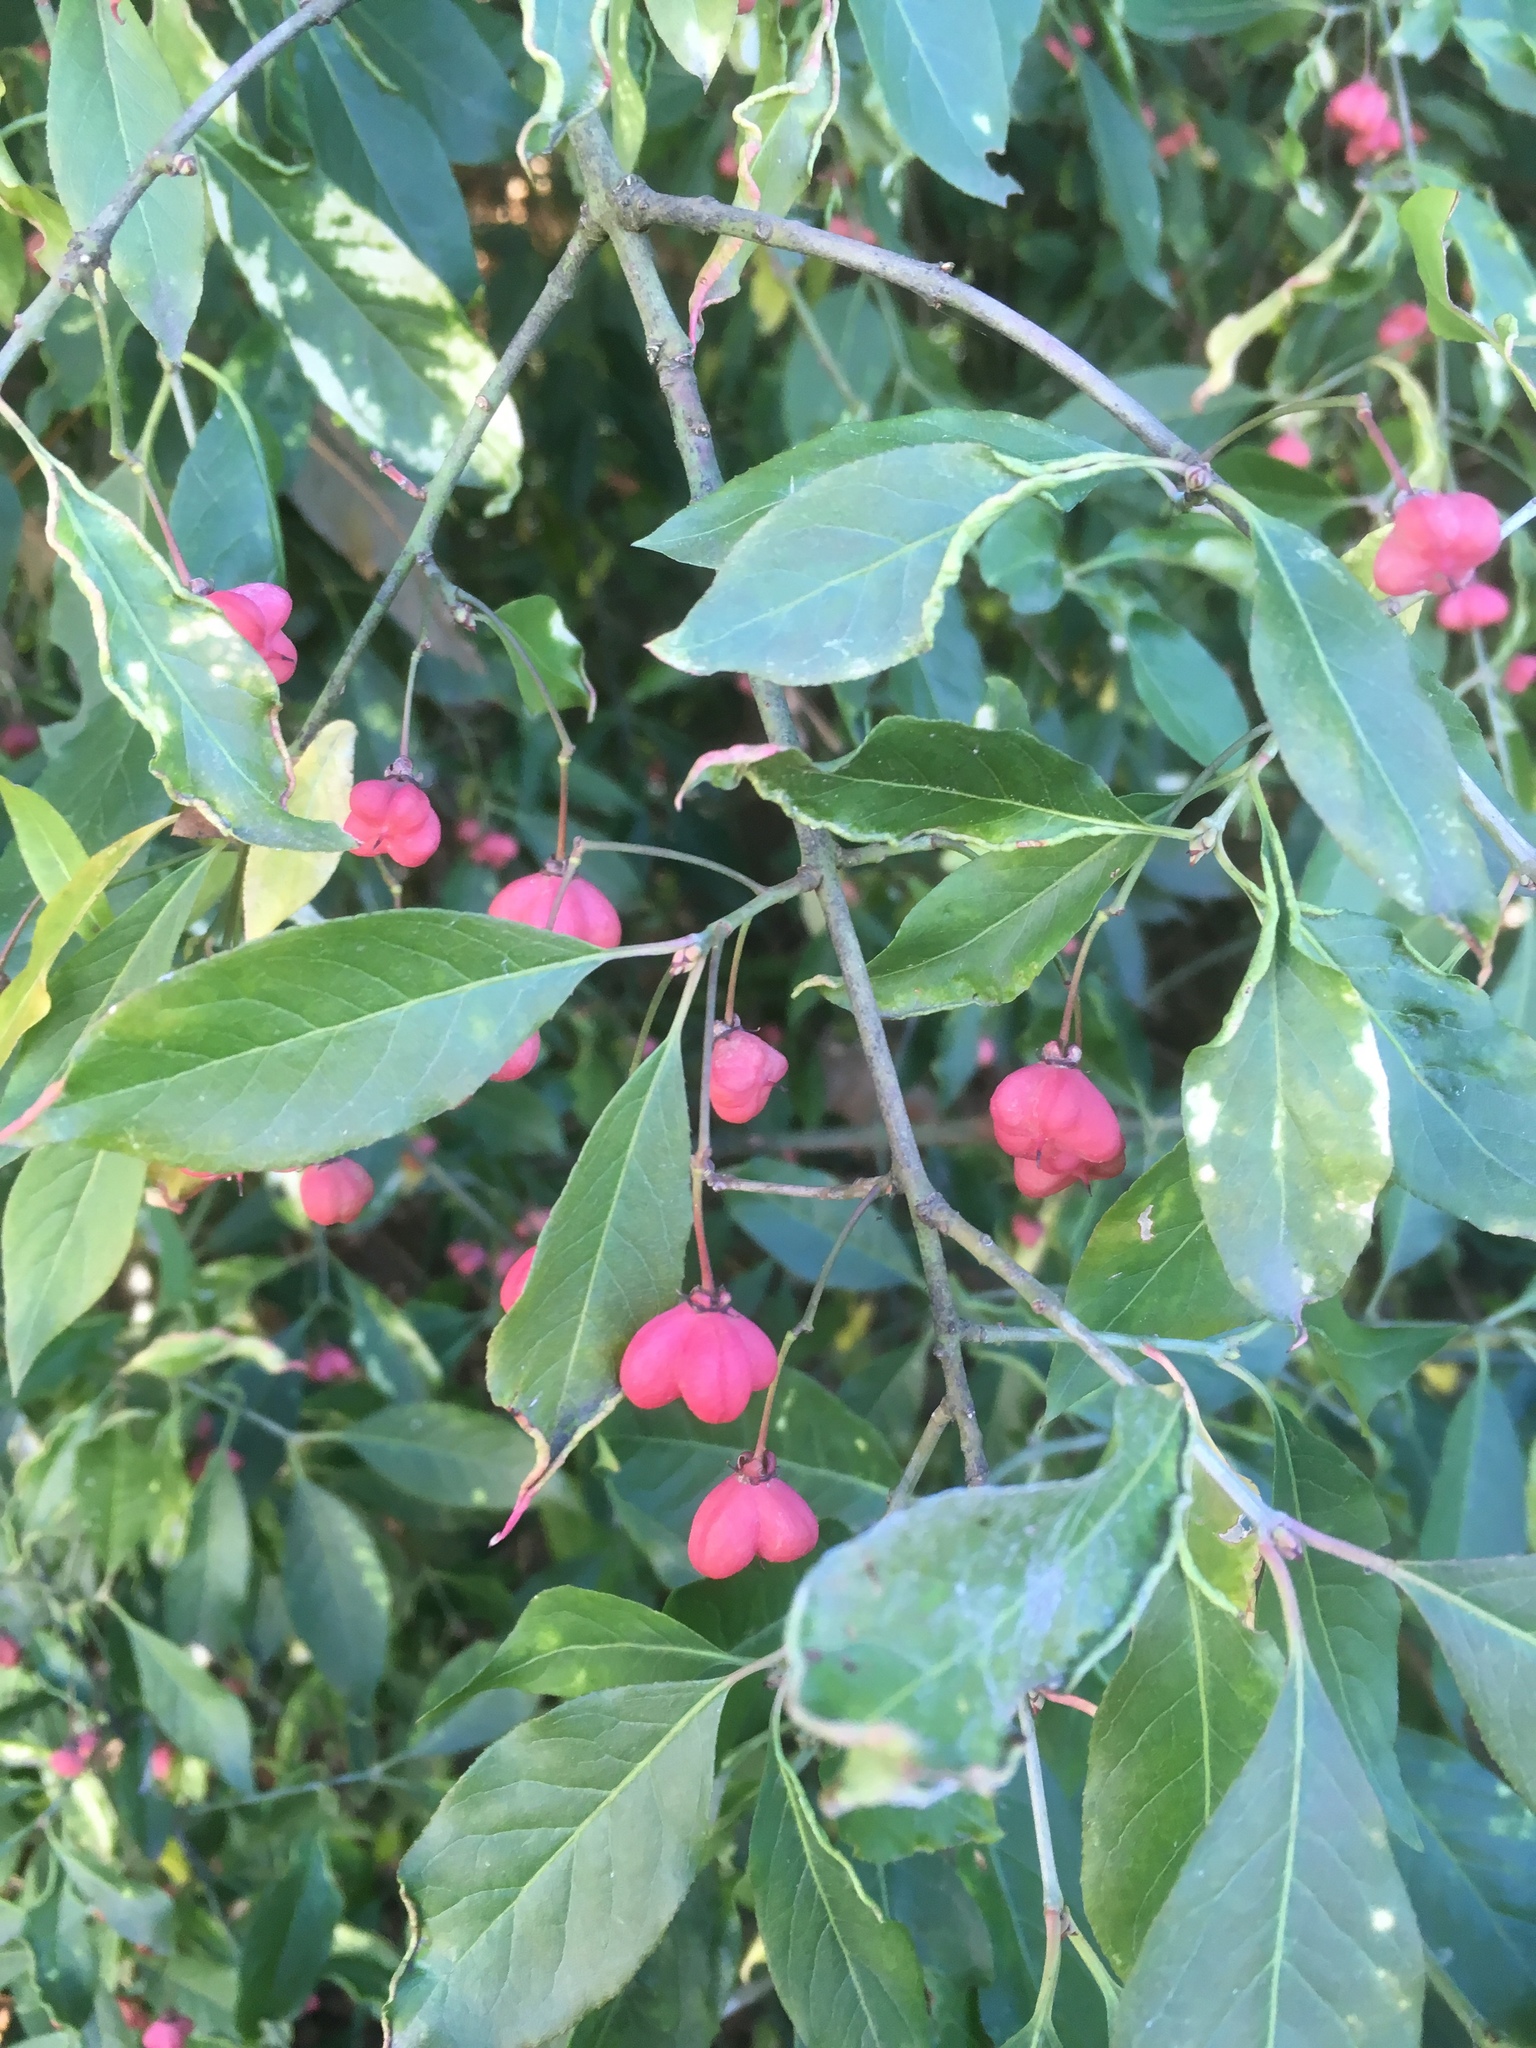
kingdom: Plantae
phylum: Tracheophyta
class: Magnoliopsida
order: Celastrales
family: Celastraceae
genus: Euonymus
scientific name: Euonymus europaeus
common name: Spindle
